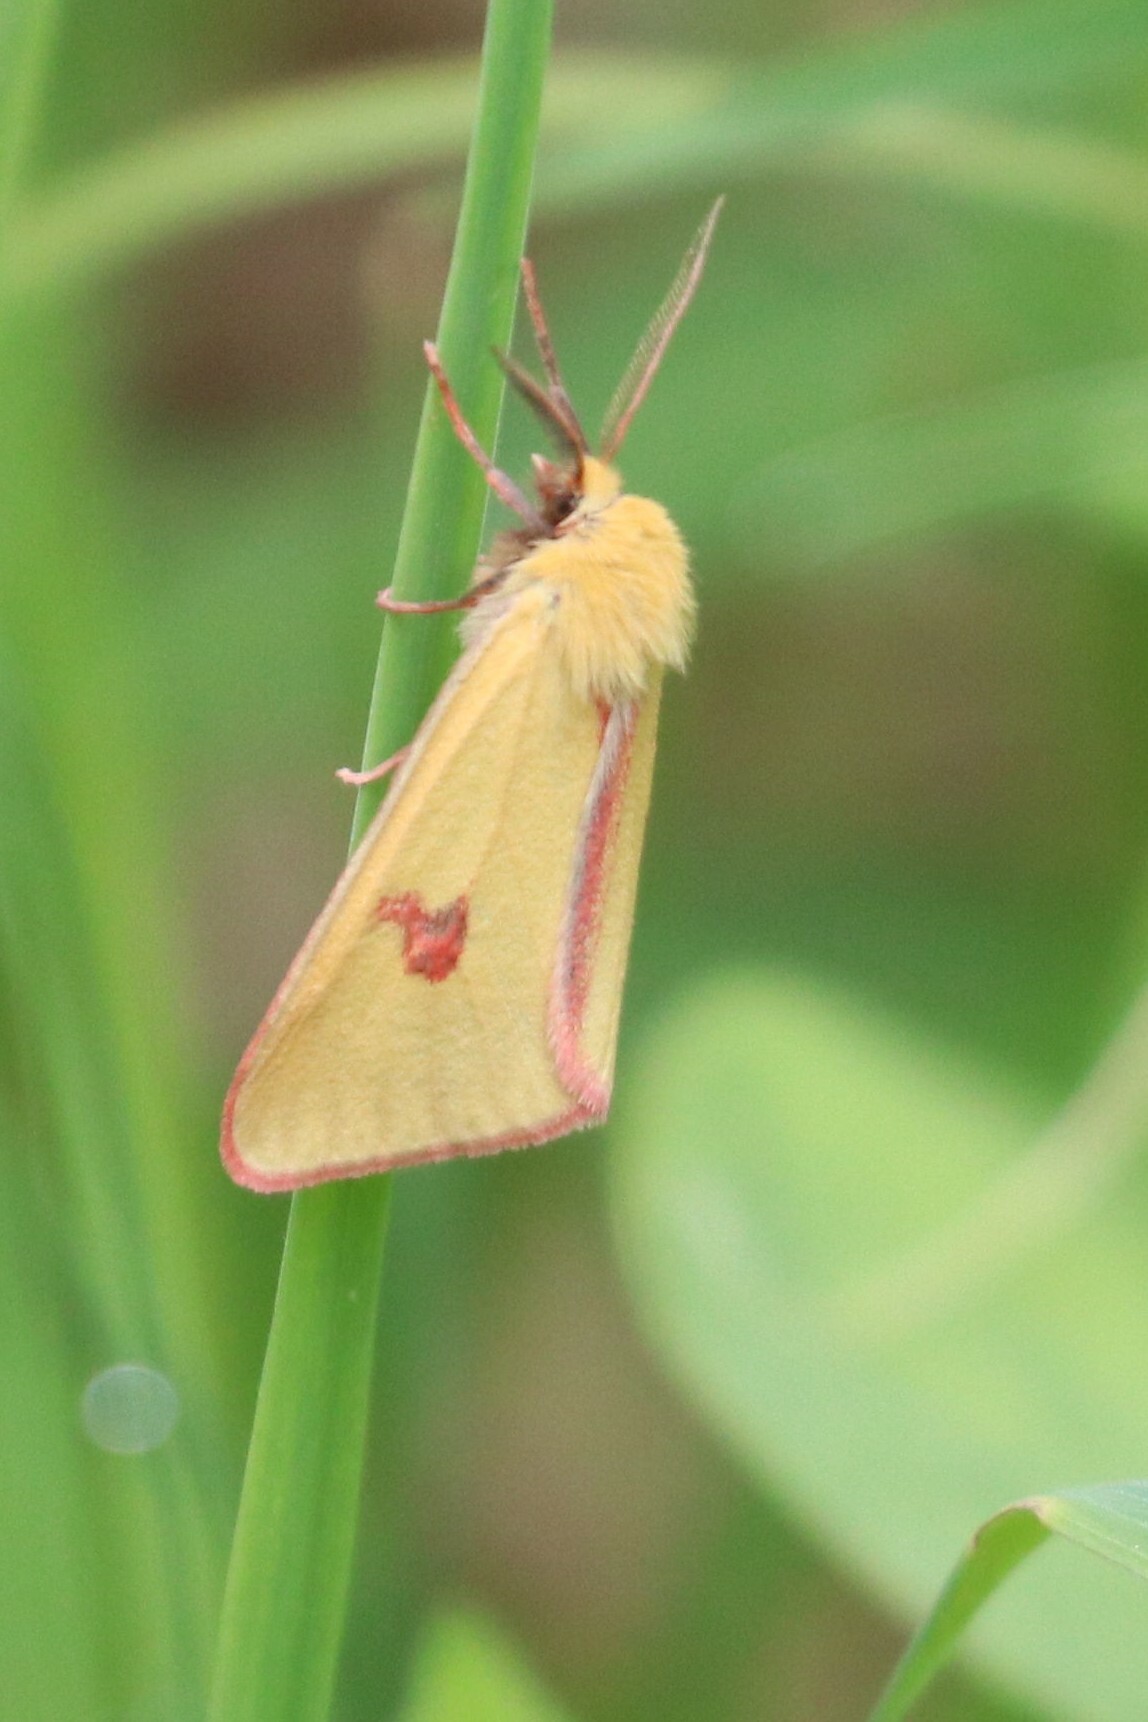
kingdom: Animalia
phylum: Arthropoda
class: Insecta
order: Lepidoptera
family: Erebidae
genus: Diacrisia
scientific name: Diacrisia sannio
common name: Clouded buff
